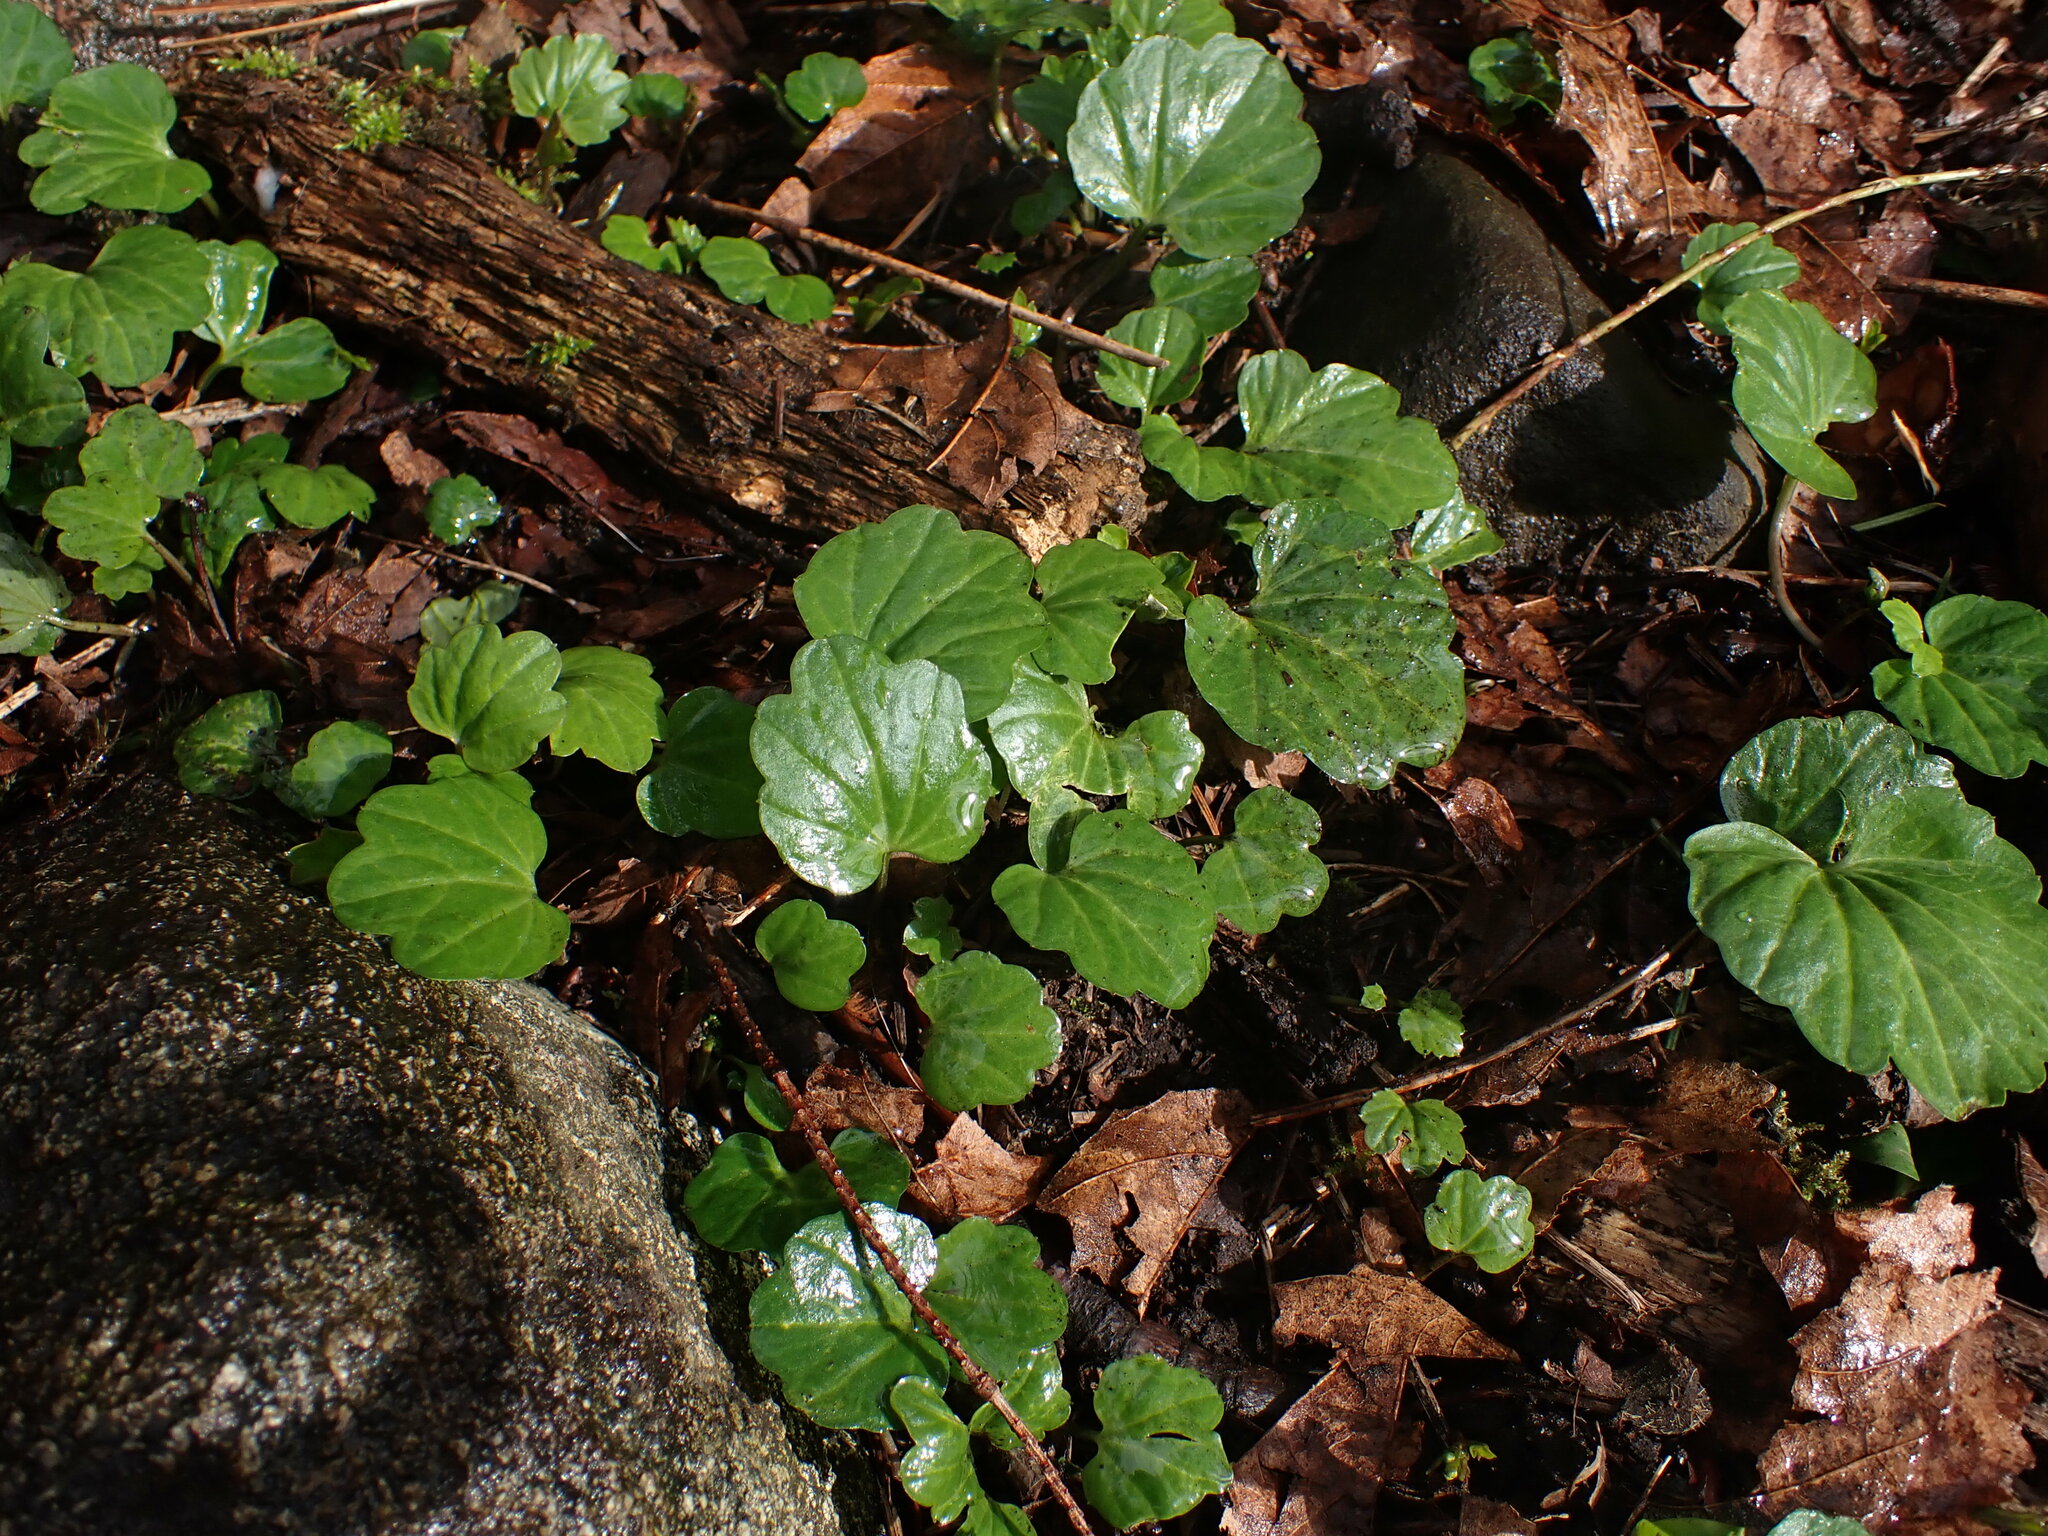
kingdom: Plantae
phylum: Tracheophyta
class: Magnoliopsida
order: Brassicales
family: Brassicaceae
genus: Cardamine
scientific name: Cardamine nuttallii
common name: Nuttall's toothwort
